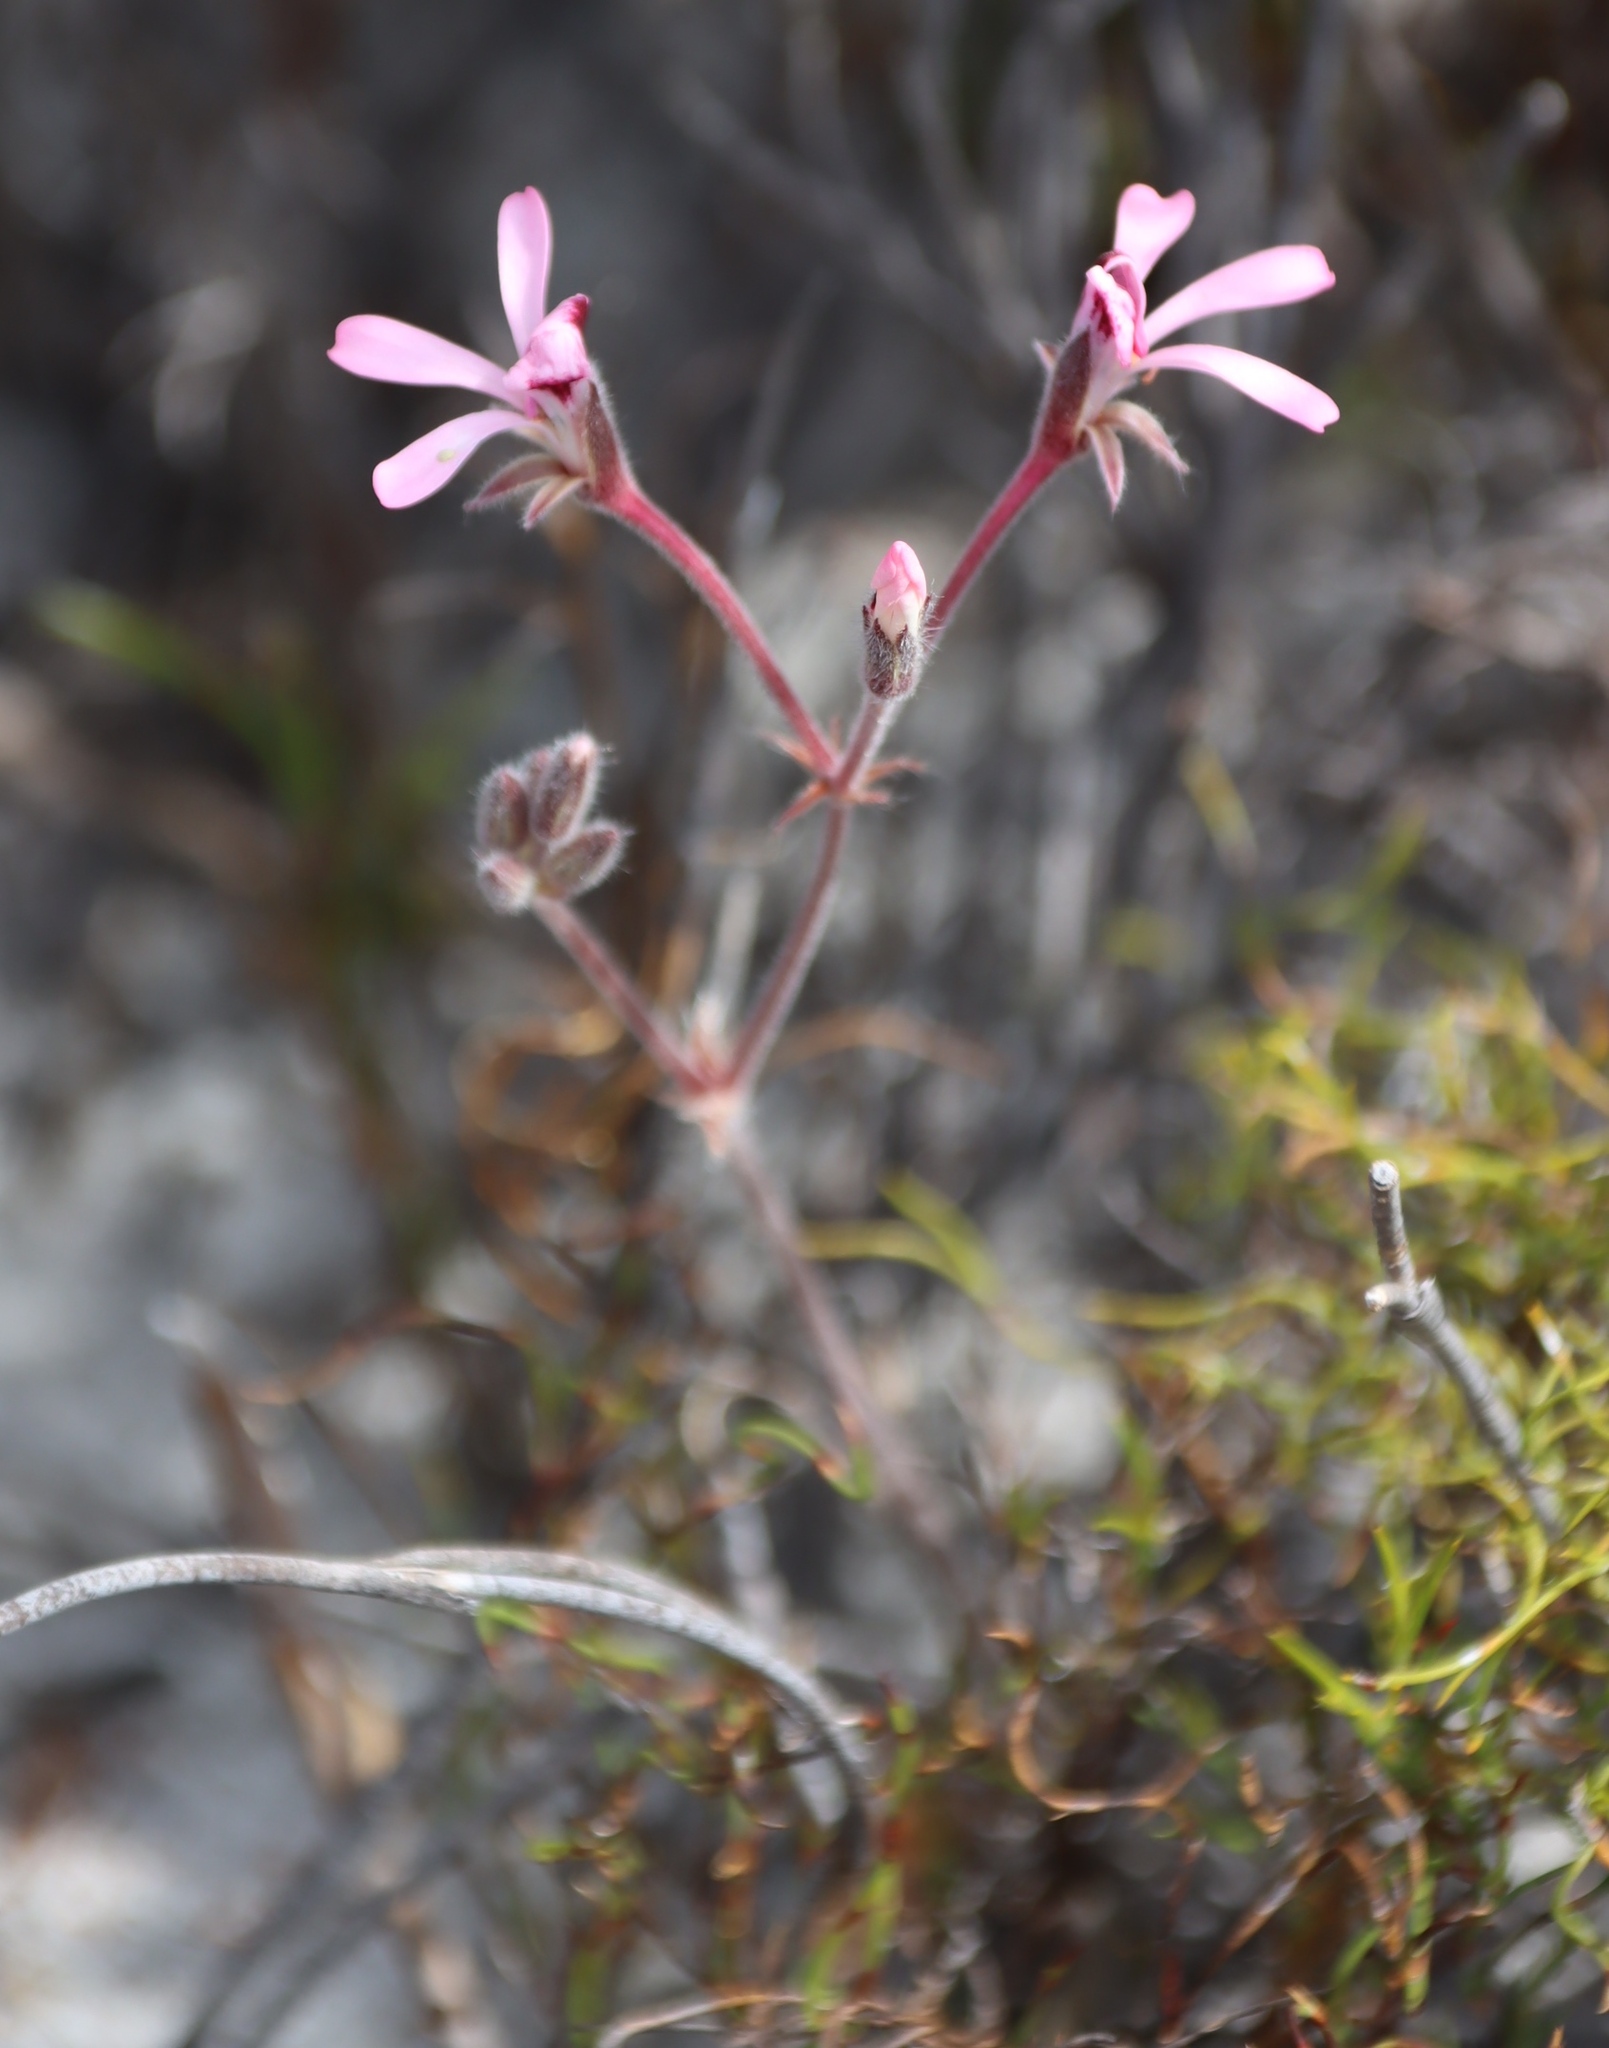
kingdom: Plantae
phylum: Tracheophyta
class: Magnoliopsida
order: Geraniales
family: Geraniaceae
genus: Pelargonium
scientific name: Pelargonium psammophilum
